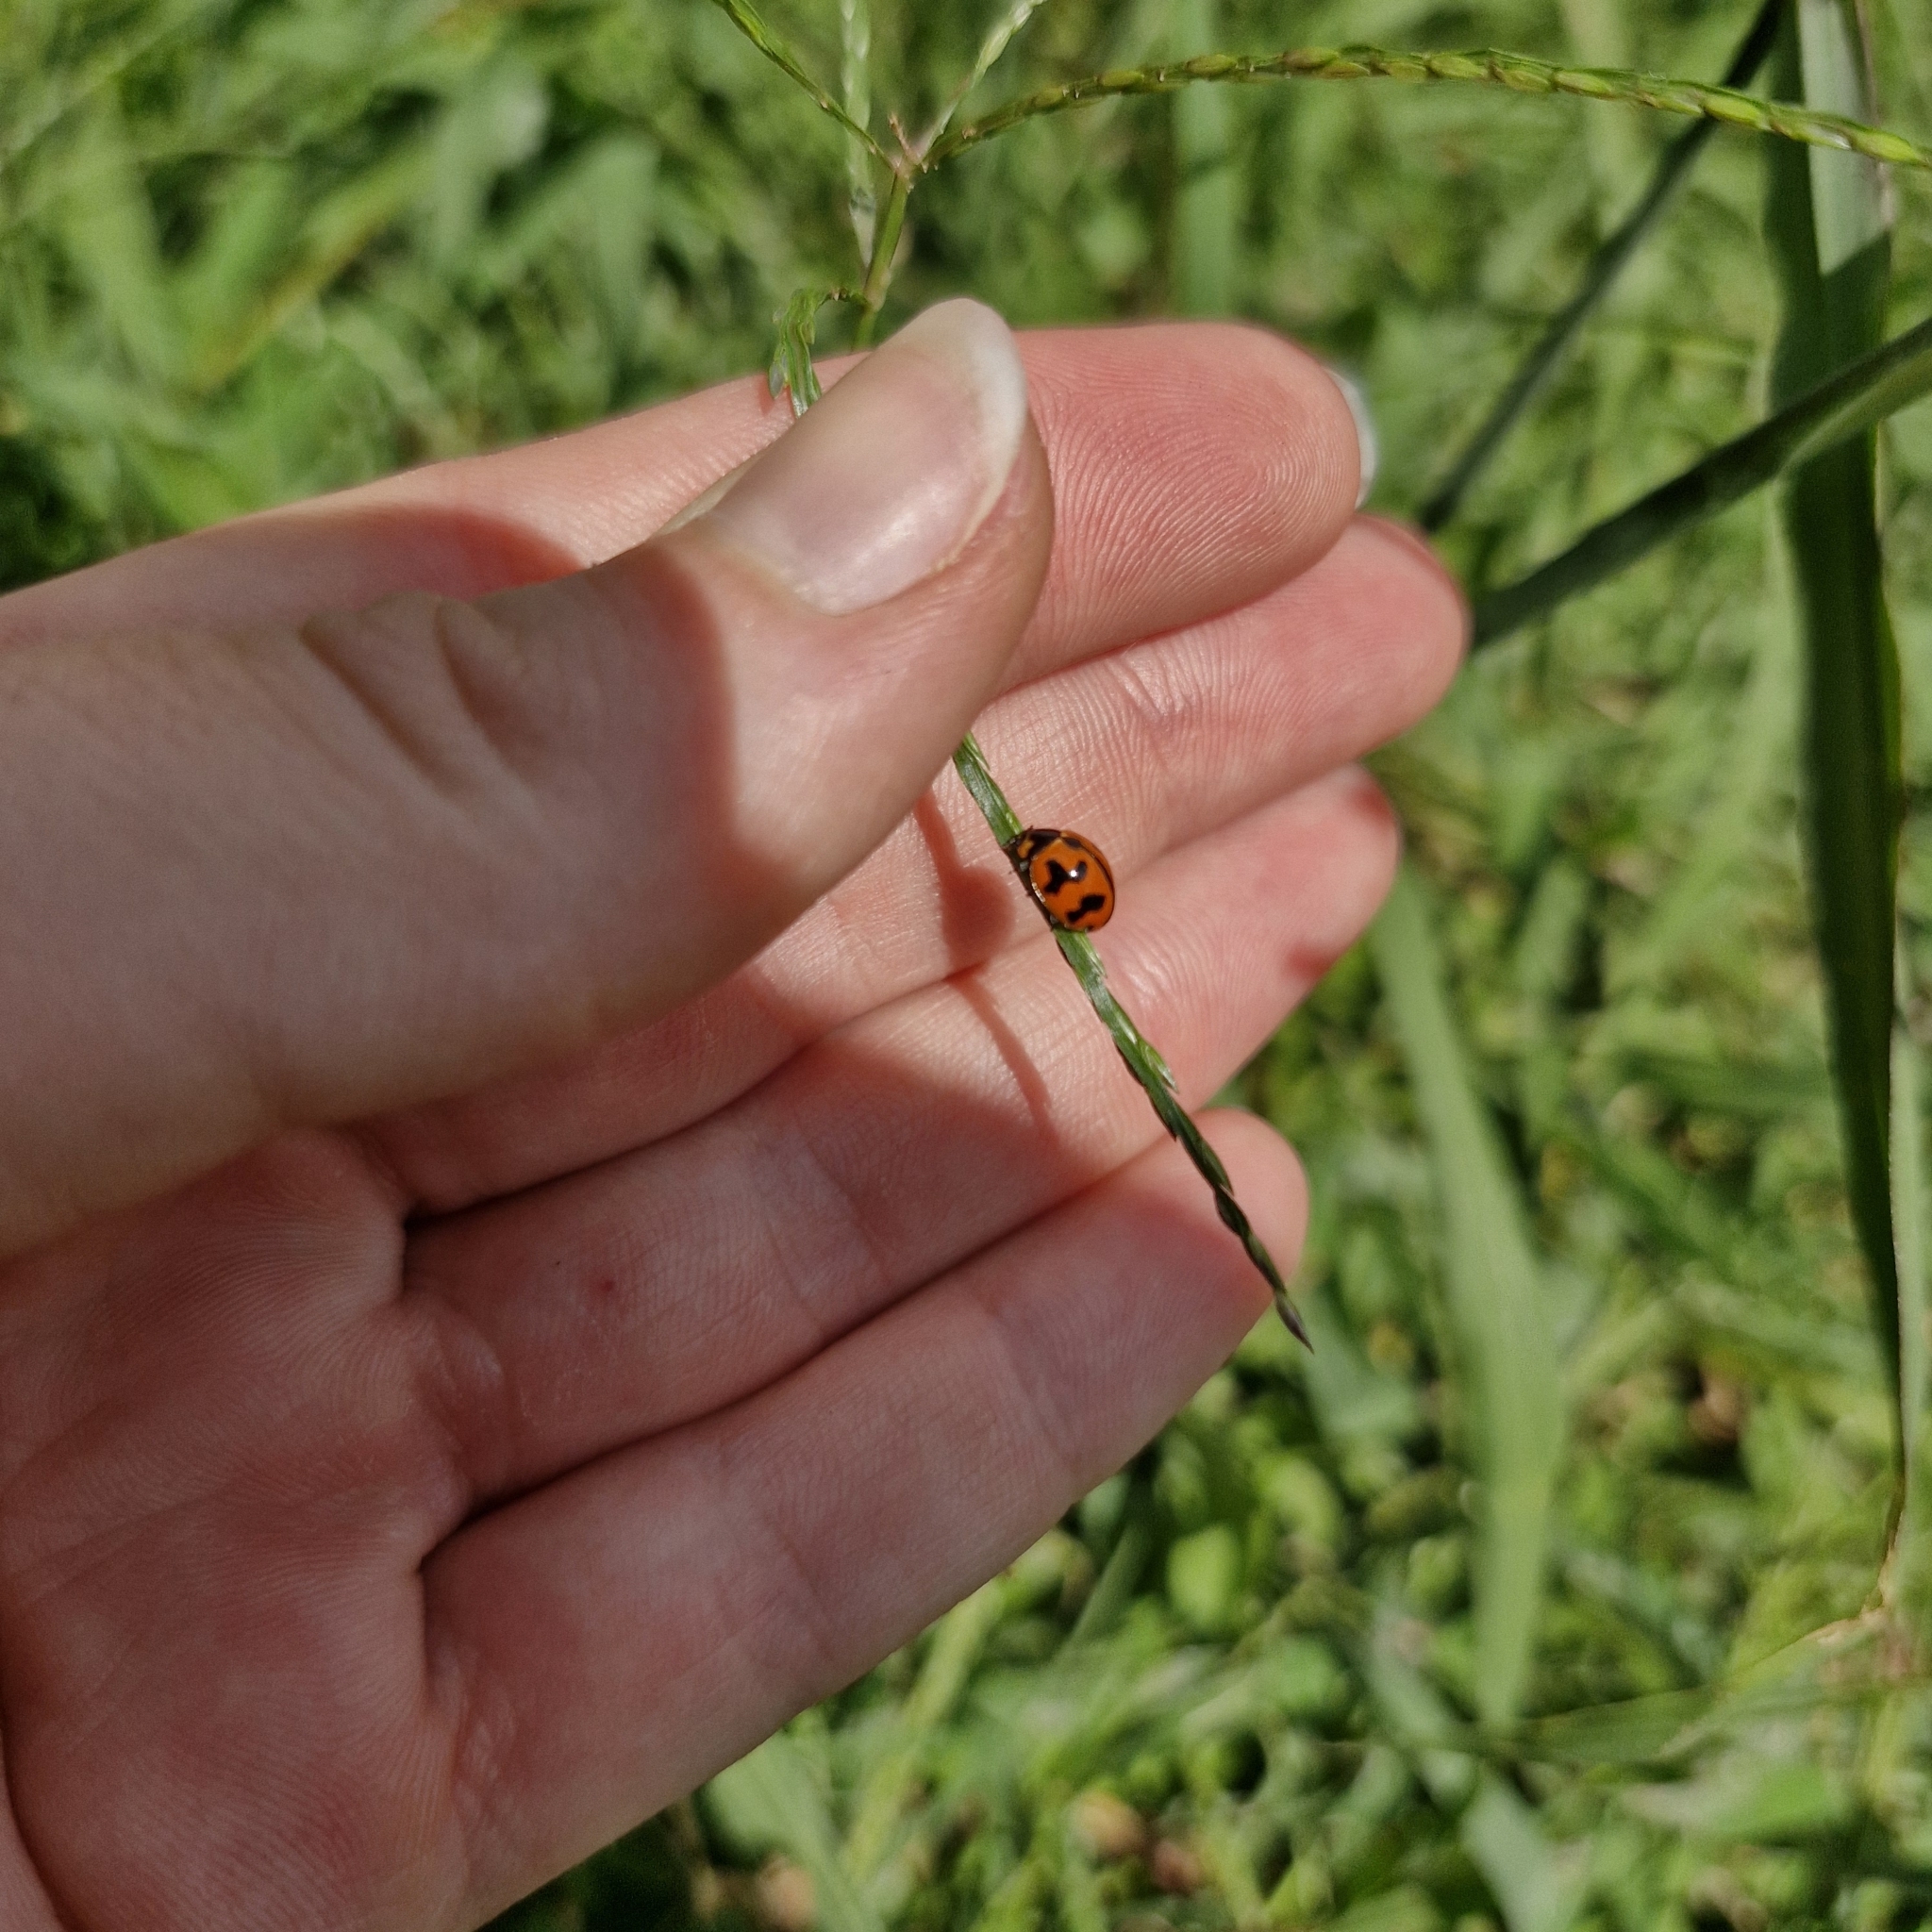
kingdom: Animalia
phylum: Arthropoda
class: Insecta
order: Coleoptera
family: Coccinellidae
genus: Coccinella
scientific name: Coccinella transversalis
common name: Transverse lady beetle
